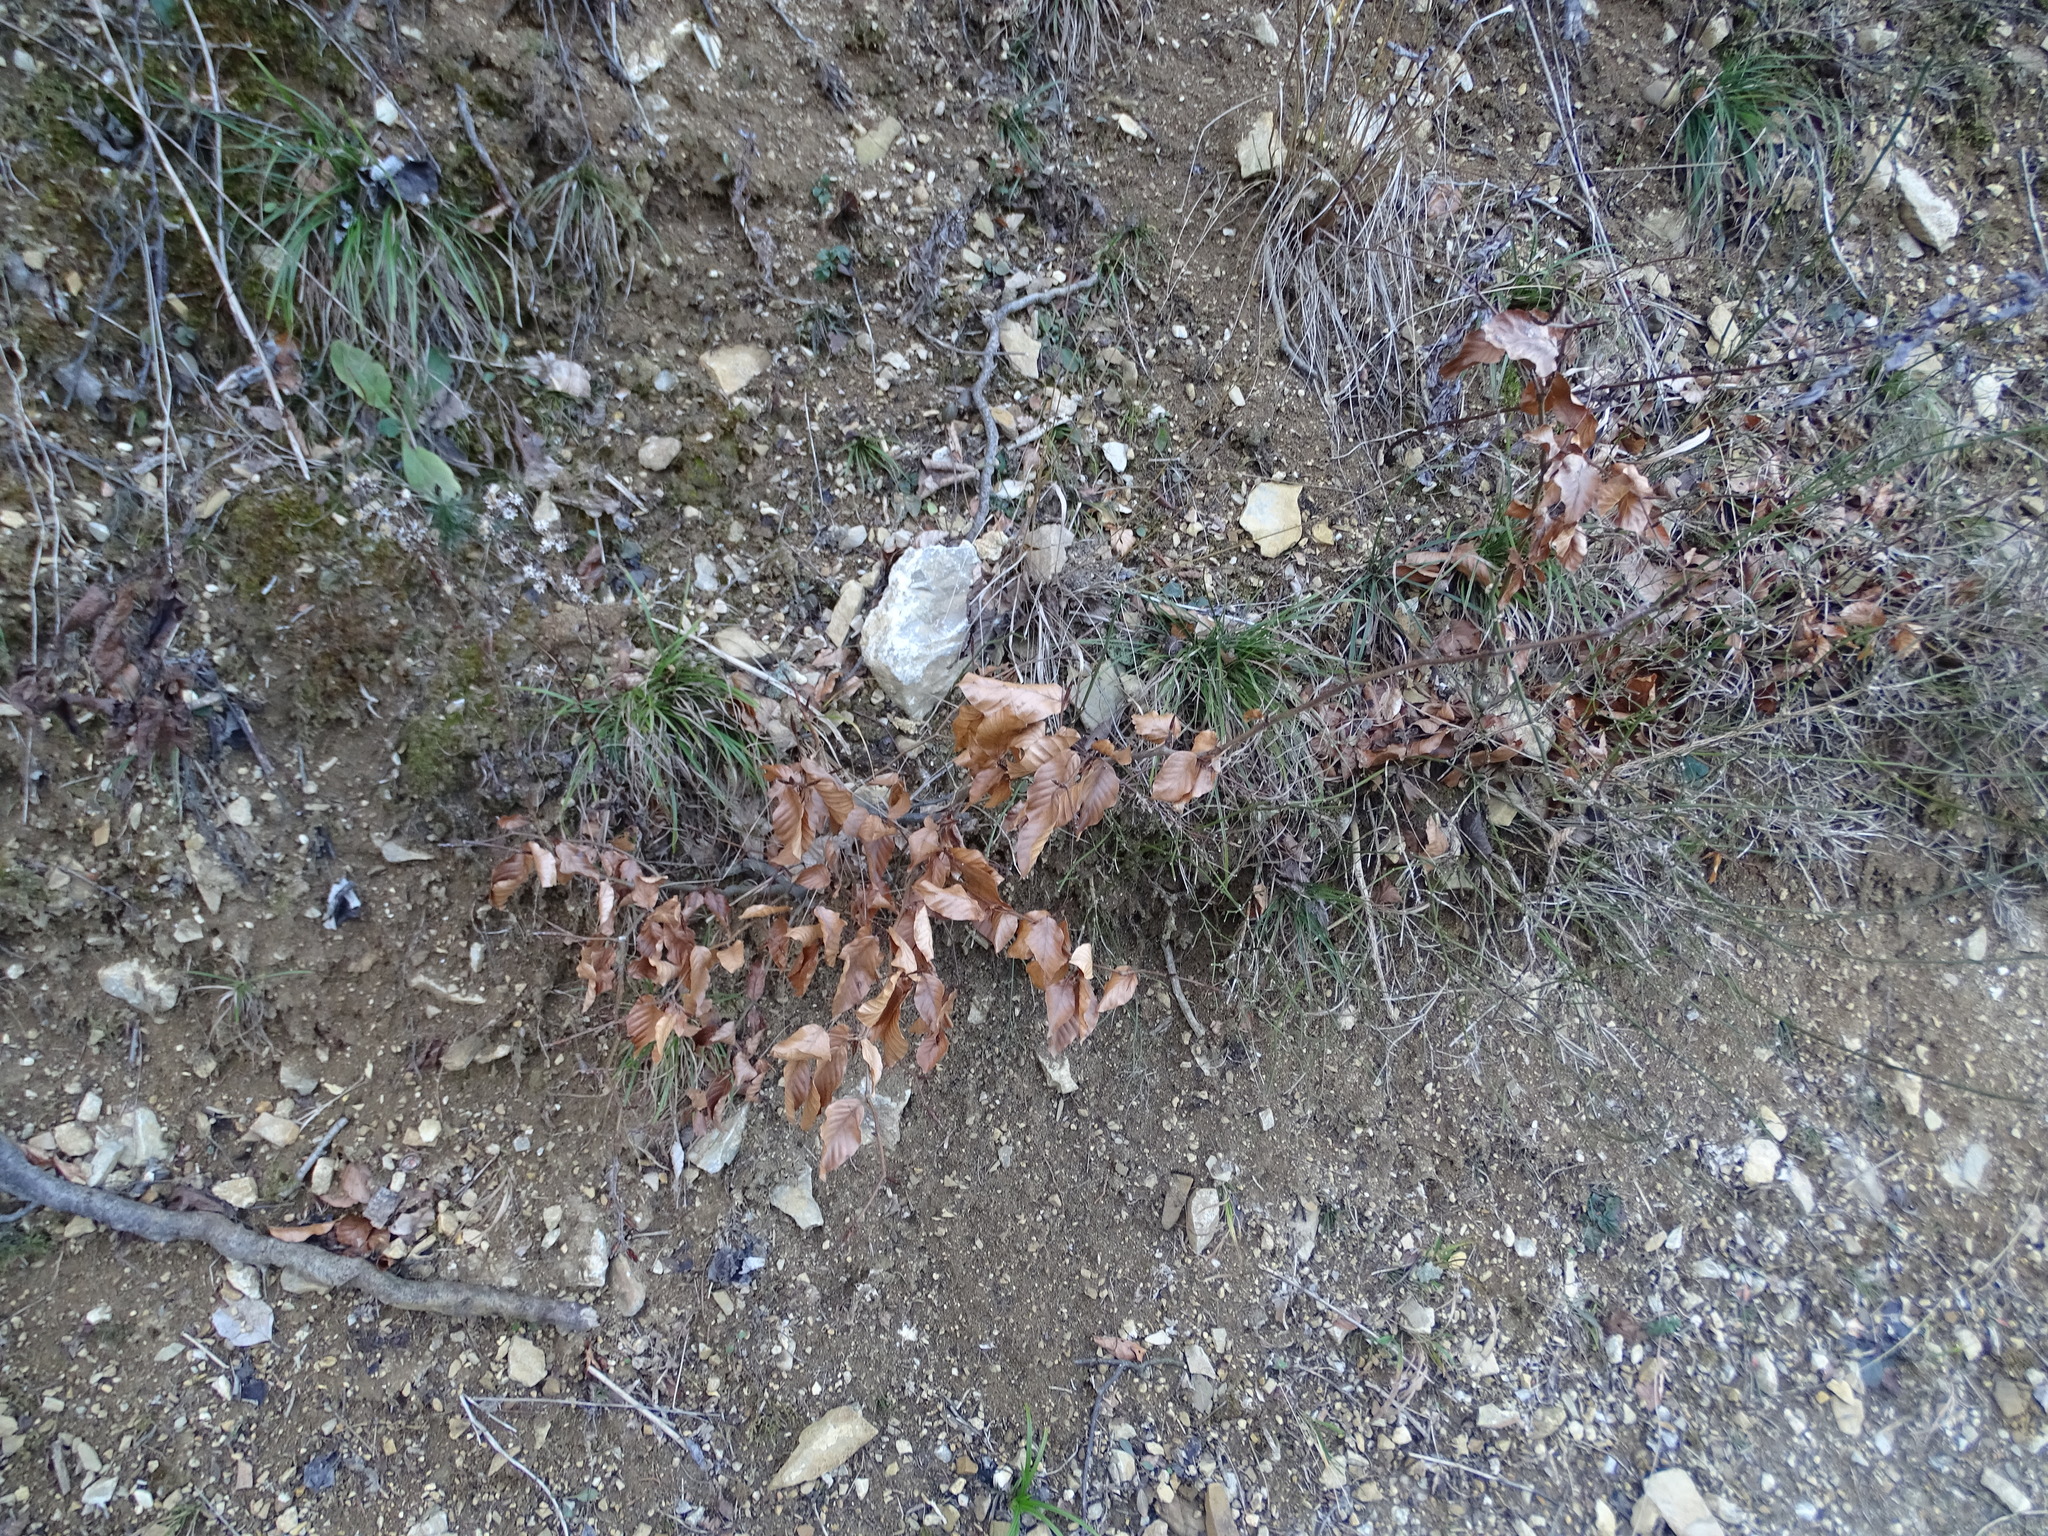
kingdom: Plantae
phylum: Tracheophyta
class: Magnoliopsida
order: Fagales
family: Fagaceae
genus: Fagus
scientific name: Fagus sylvatica
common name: Beech
